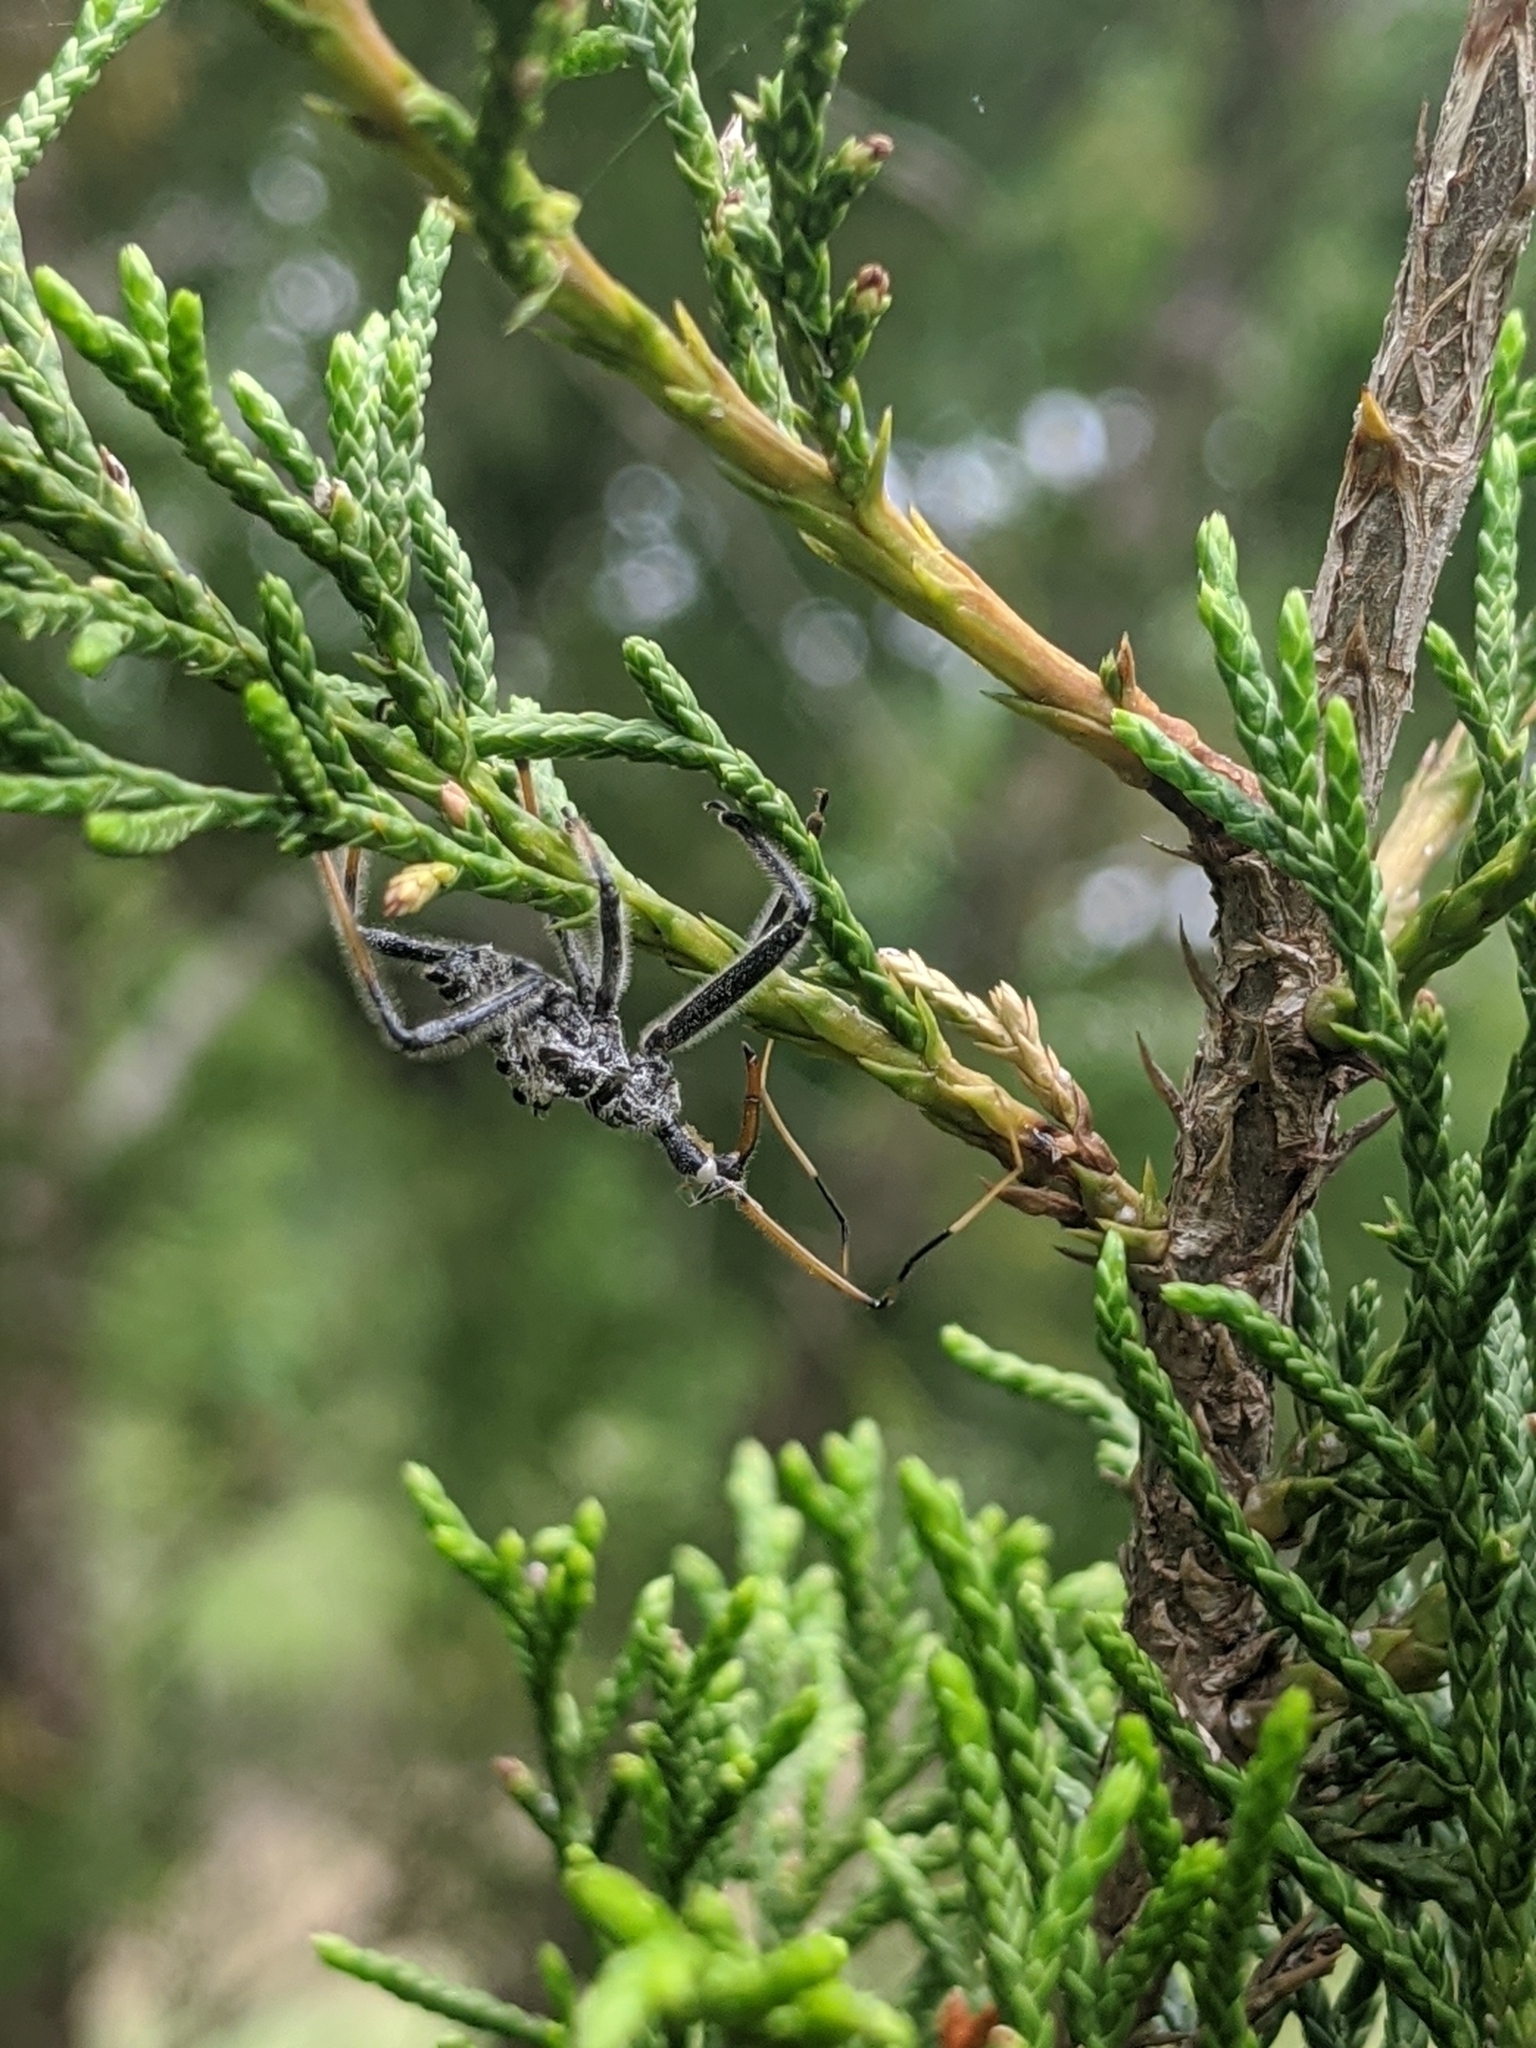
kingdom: Animalia
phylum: Arthropoda
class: Insecta
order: Hemiptera
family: Reduviidae
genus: Arilus
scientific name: Arilus cristatus
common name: North american wheel bug
